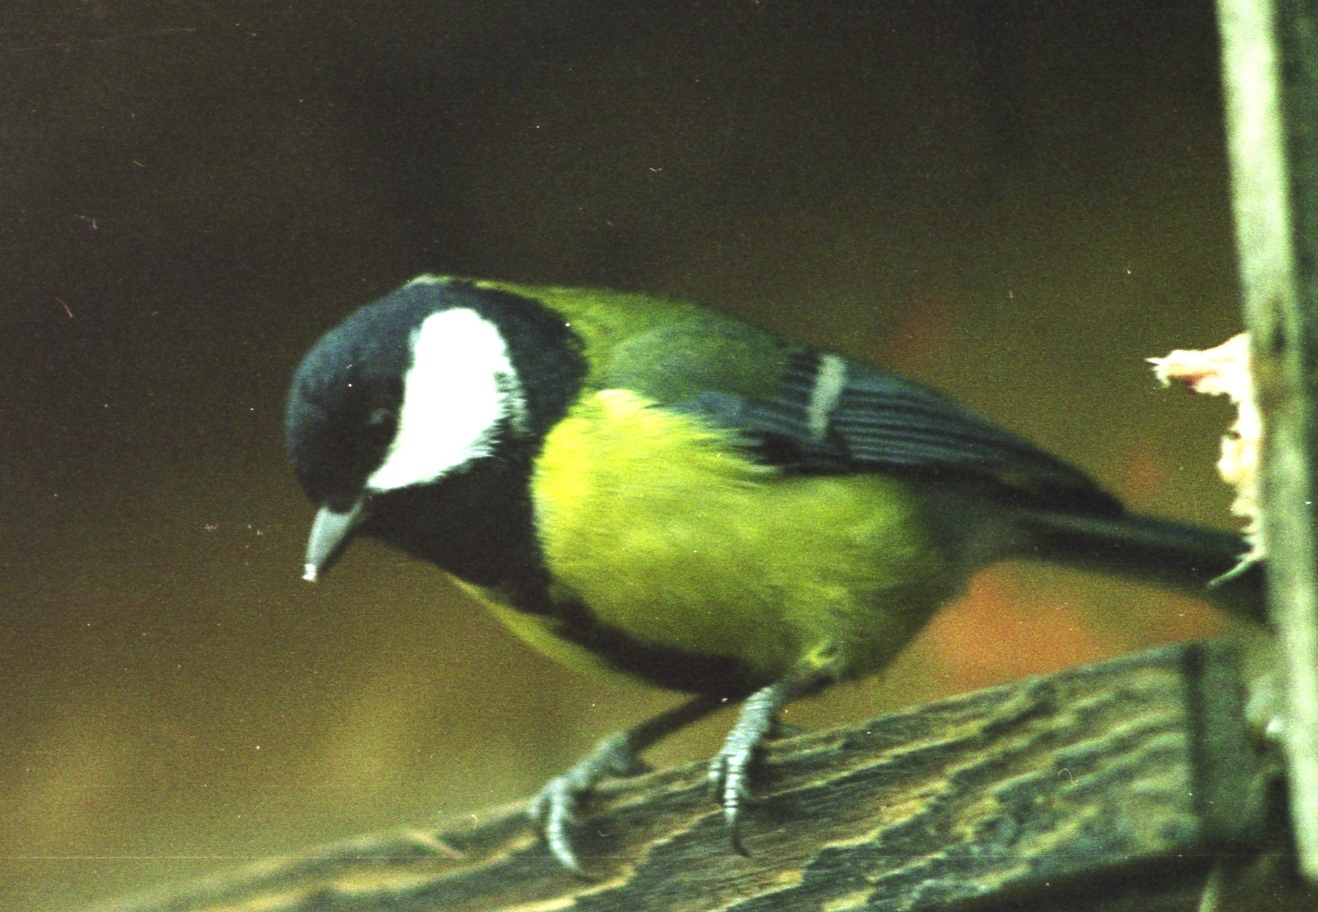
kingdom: Animalia
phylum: Chordata
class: Aves
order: Passeriformes
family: Paridae
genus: Parus
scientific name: Parus major
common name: Great tit
